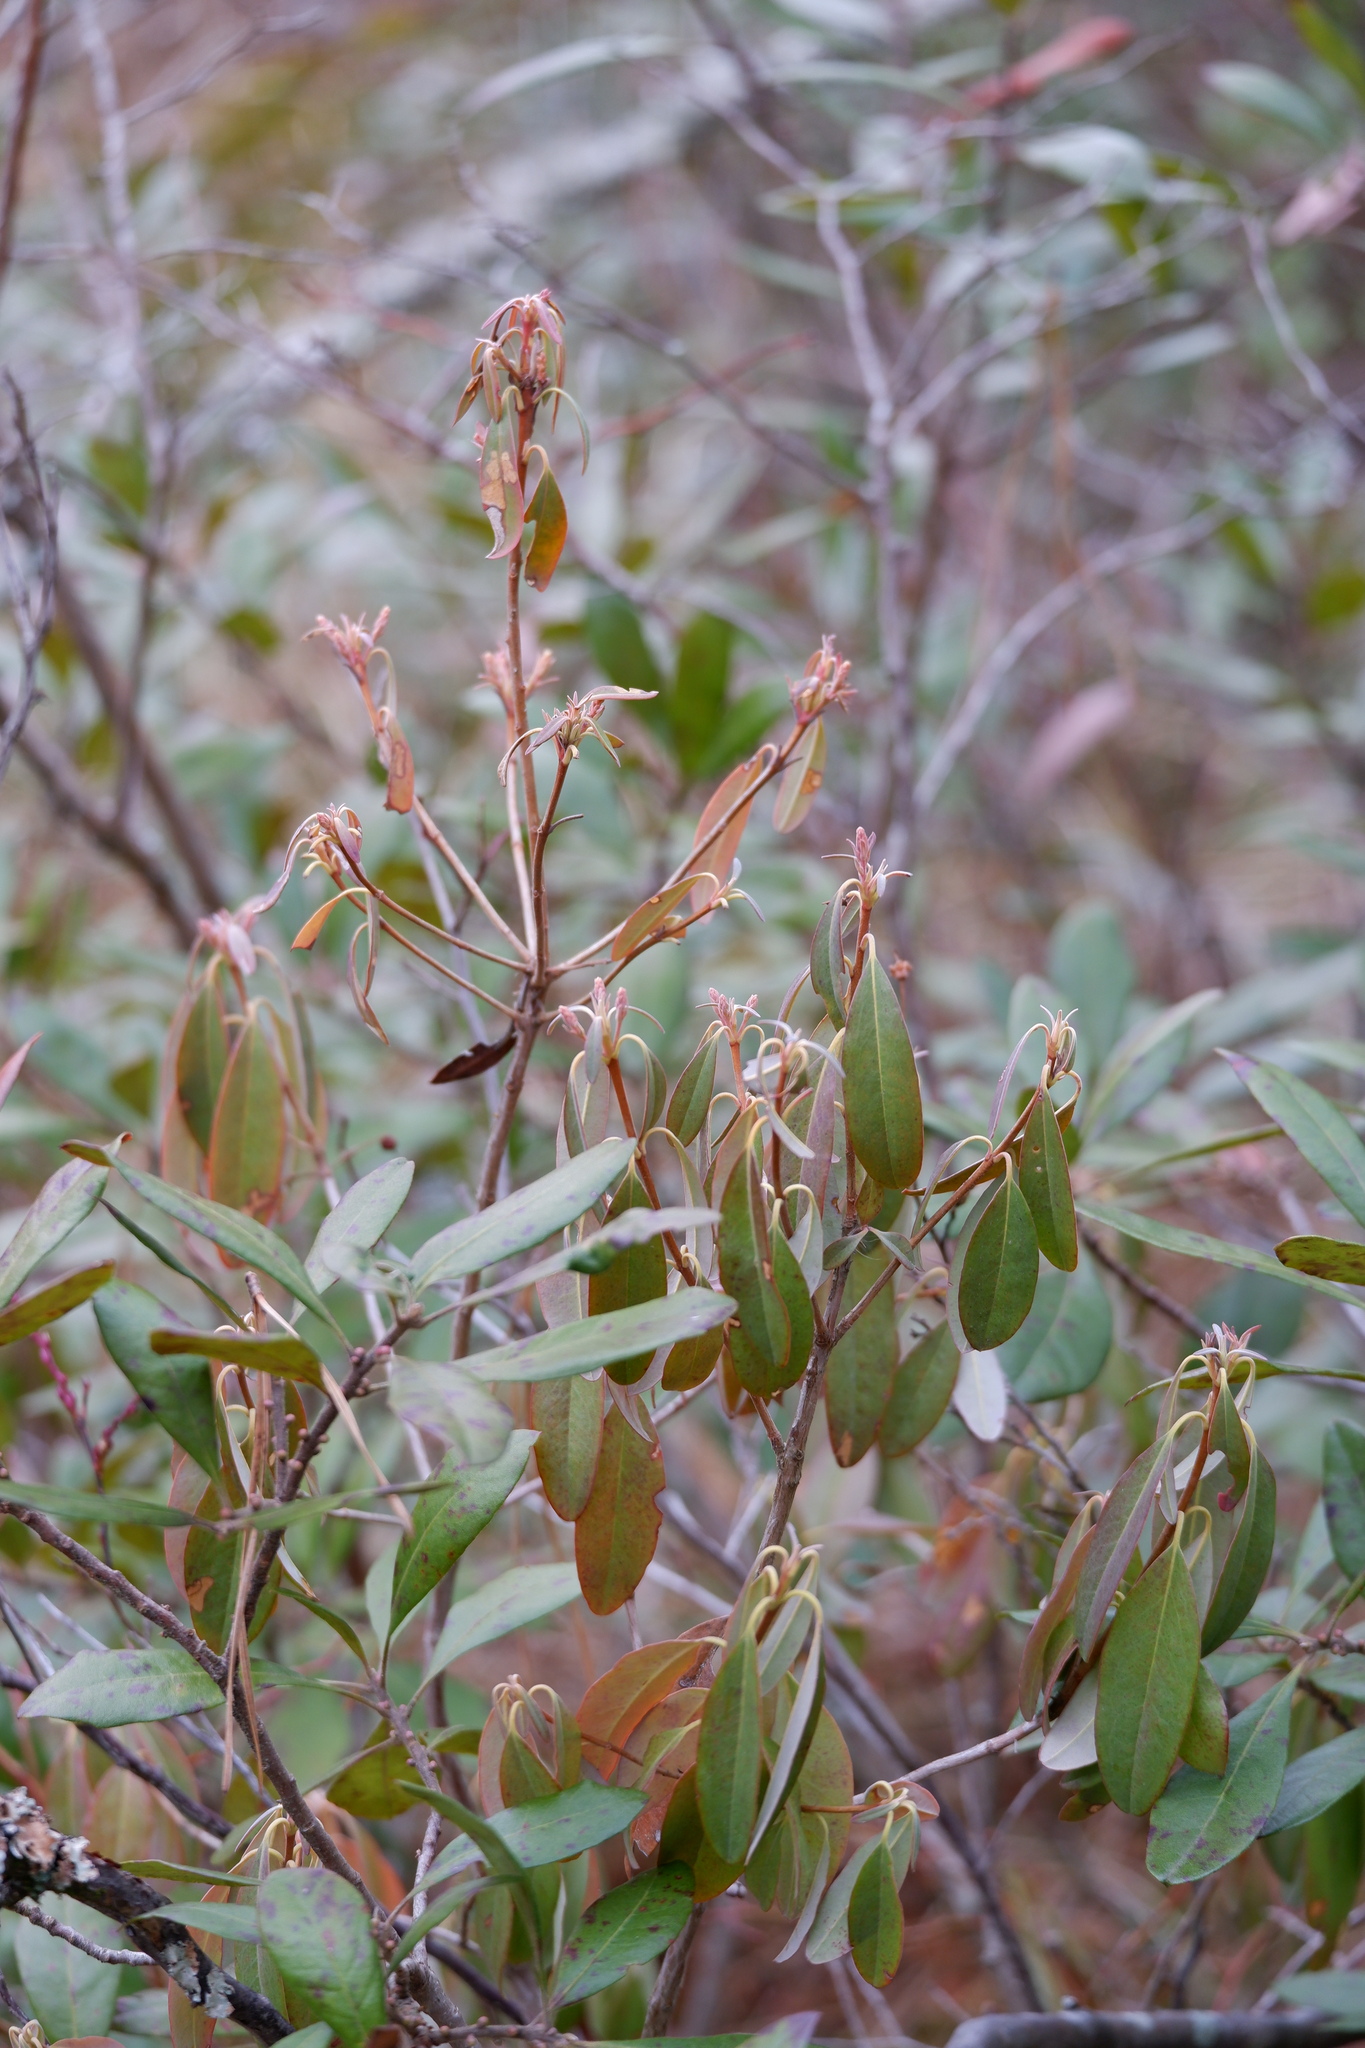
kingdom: Plantae
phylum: Tracheophyta
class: Magnoliopsida
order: Ericales
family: Ericaceae
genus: Kalmia
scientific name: Kalmia angustifolia
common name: Sheep-laurel
